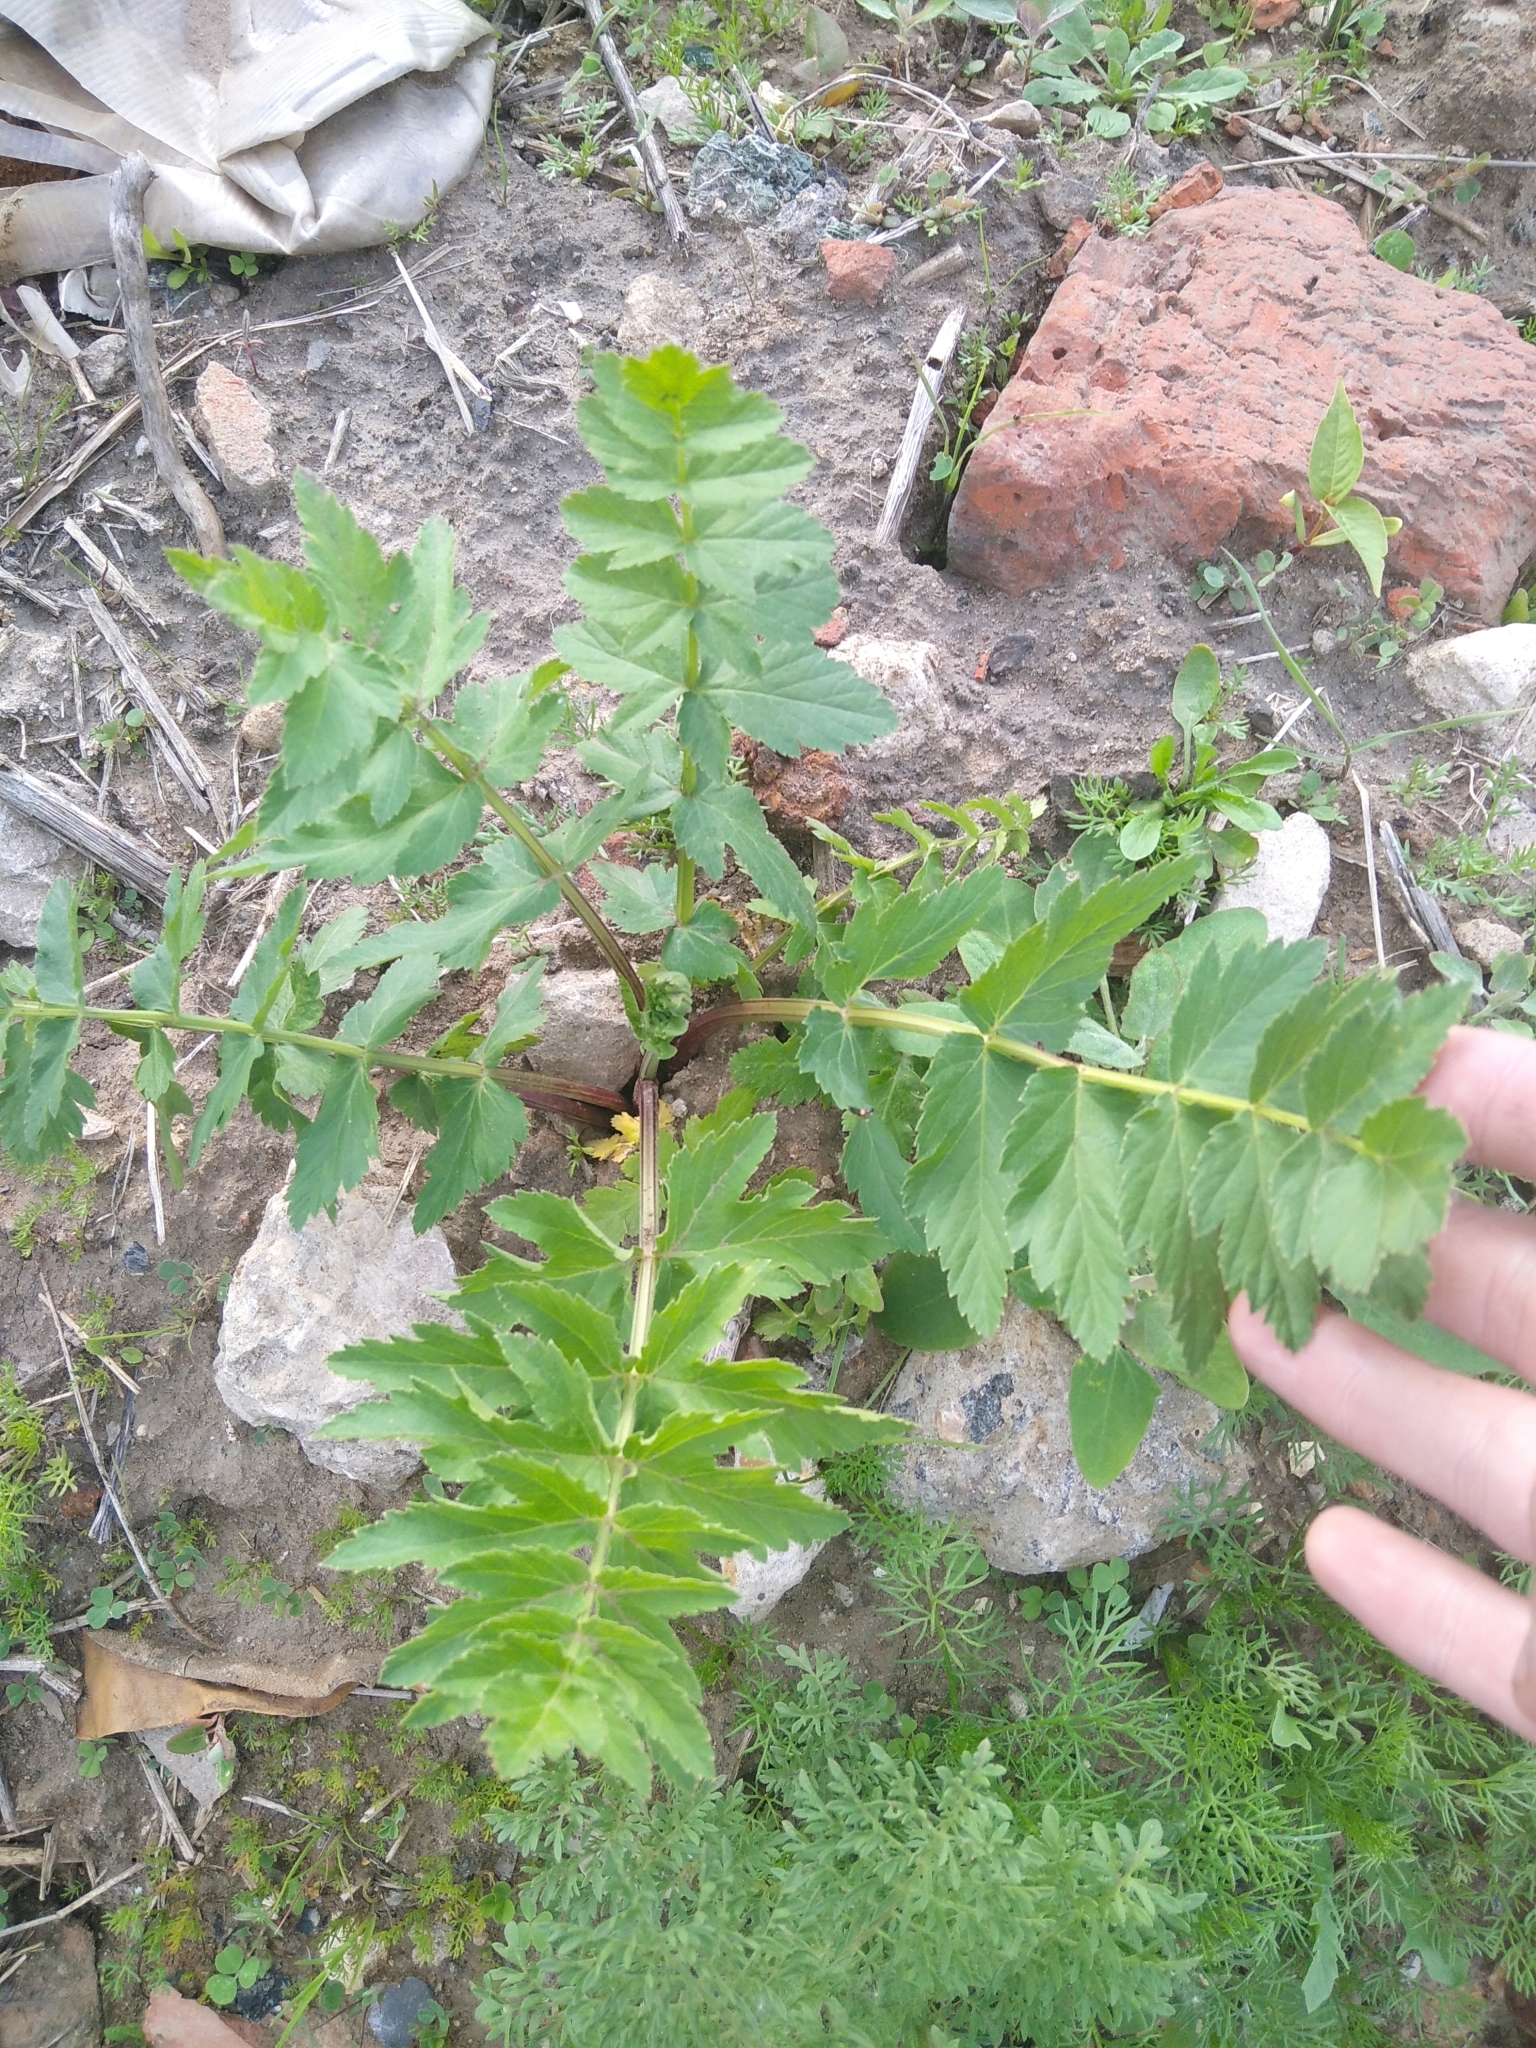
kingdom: Plantae
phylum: Tracheophyta
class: Magnoliopsida
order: Apiales
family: Apiaceae
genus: Pastinaca
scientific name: Pastinaca sativa
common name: Wild parsnip
